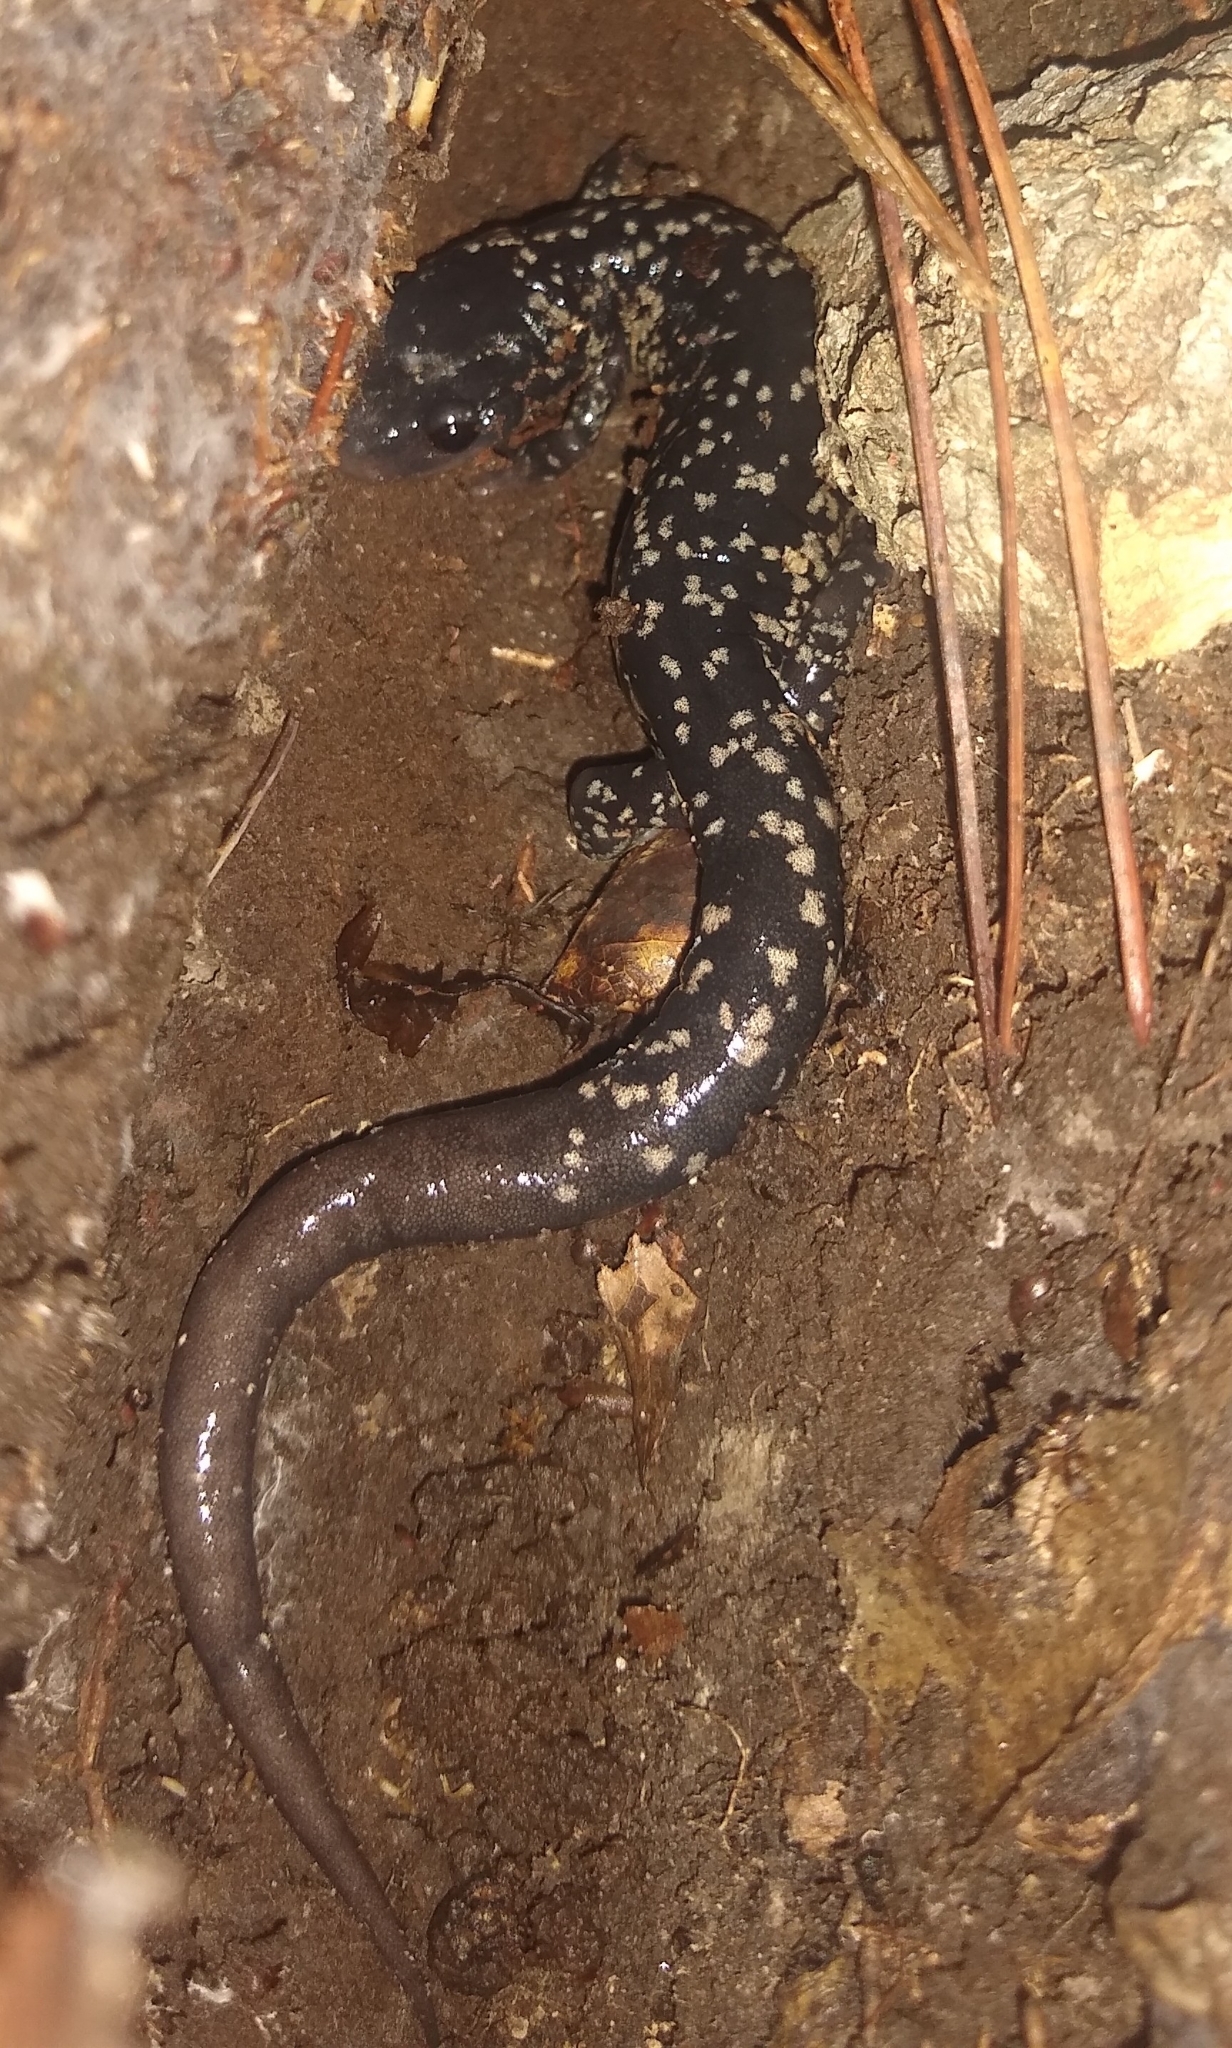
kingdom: Animalia
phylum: Chordata
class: Amphibia
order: Caudata
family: Plethodontidae
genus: Plethodon
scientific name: Plethodon cylindraceus
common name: White-spotted slimy salamander
